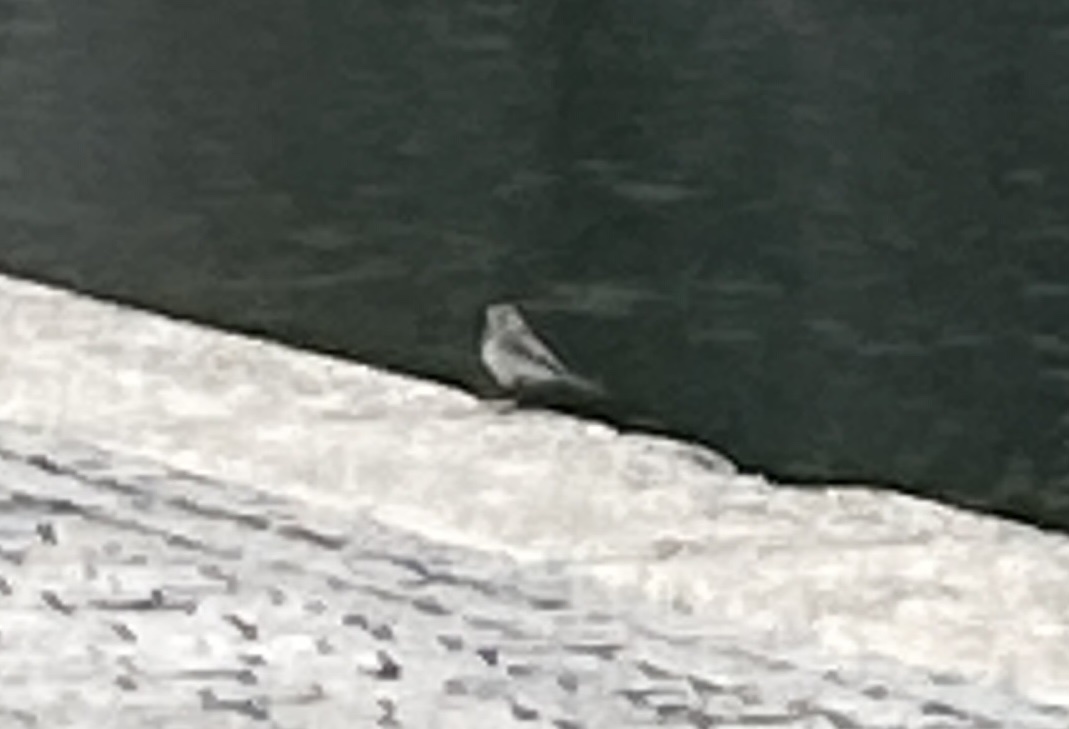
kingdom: Animalia
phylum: Chordata
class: Aves
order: Passeriformes
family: Motacillidae
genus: Motacilla
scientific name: Motacilla alba
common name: White wagtail
